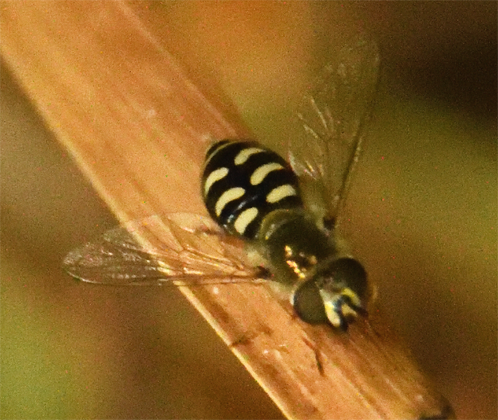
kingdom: Animalia
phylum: Arthropoda
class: Insecta
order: Diptera
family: Syrphidae
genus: Eupeodes
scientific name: Eupeodes volucris
